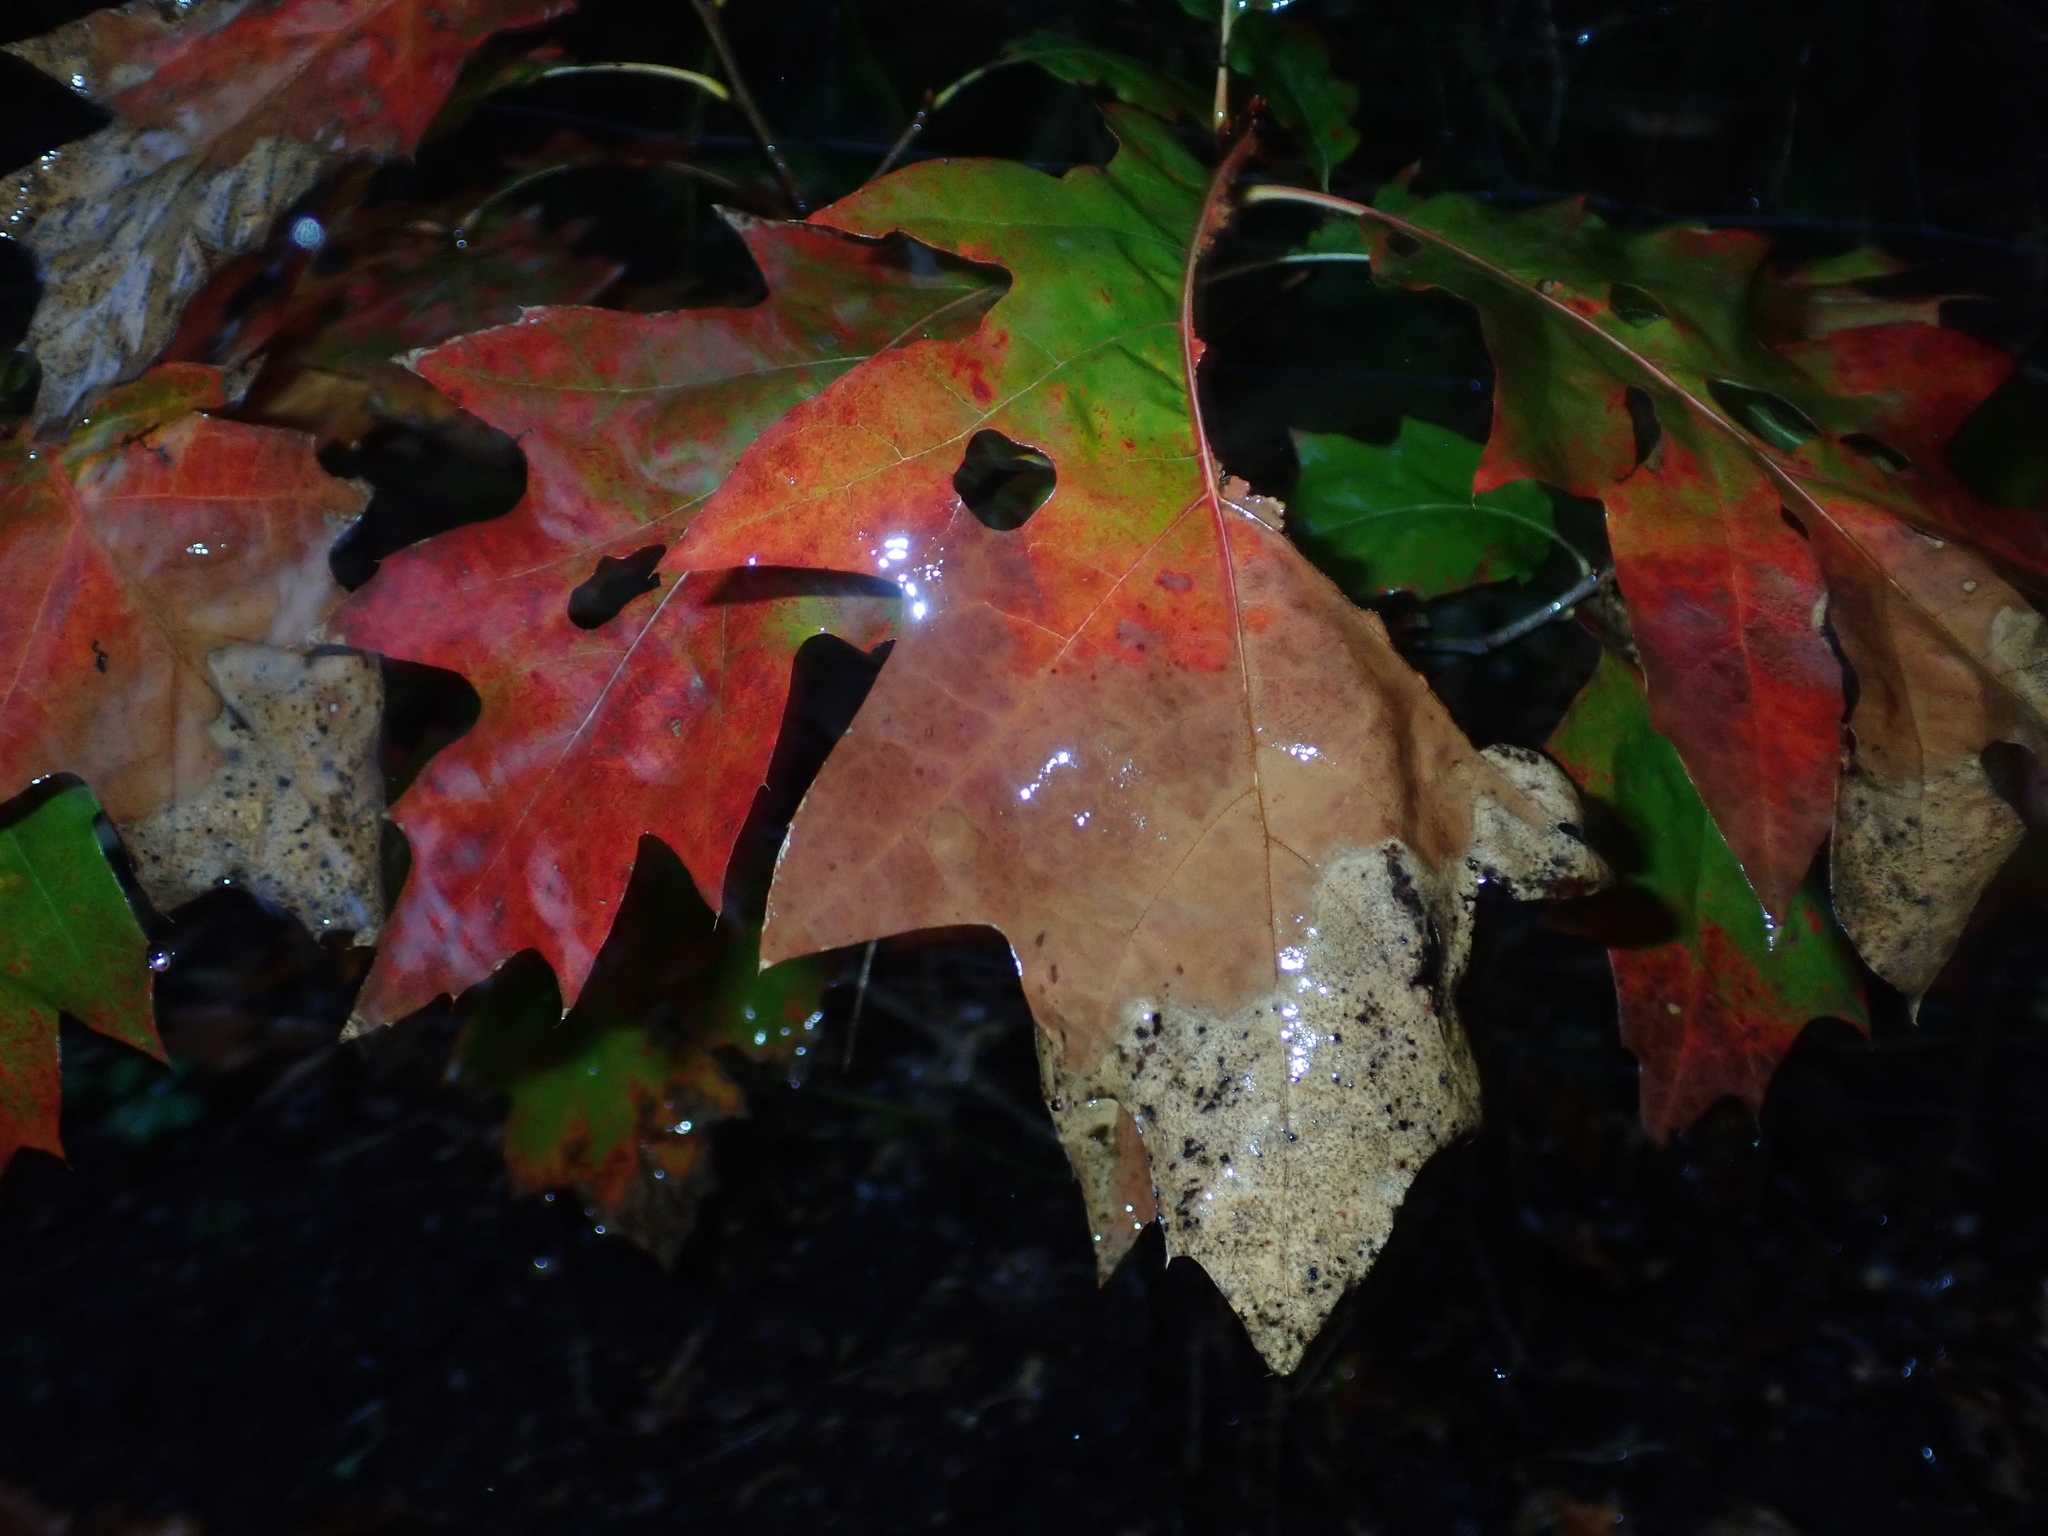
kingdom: Plantae
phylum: Tracheophyta
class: Magnoliopsida
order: Fagales
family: Fagaceae
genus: Quercus
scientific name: Quercus rubra
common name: Red oak
